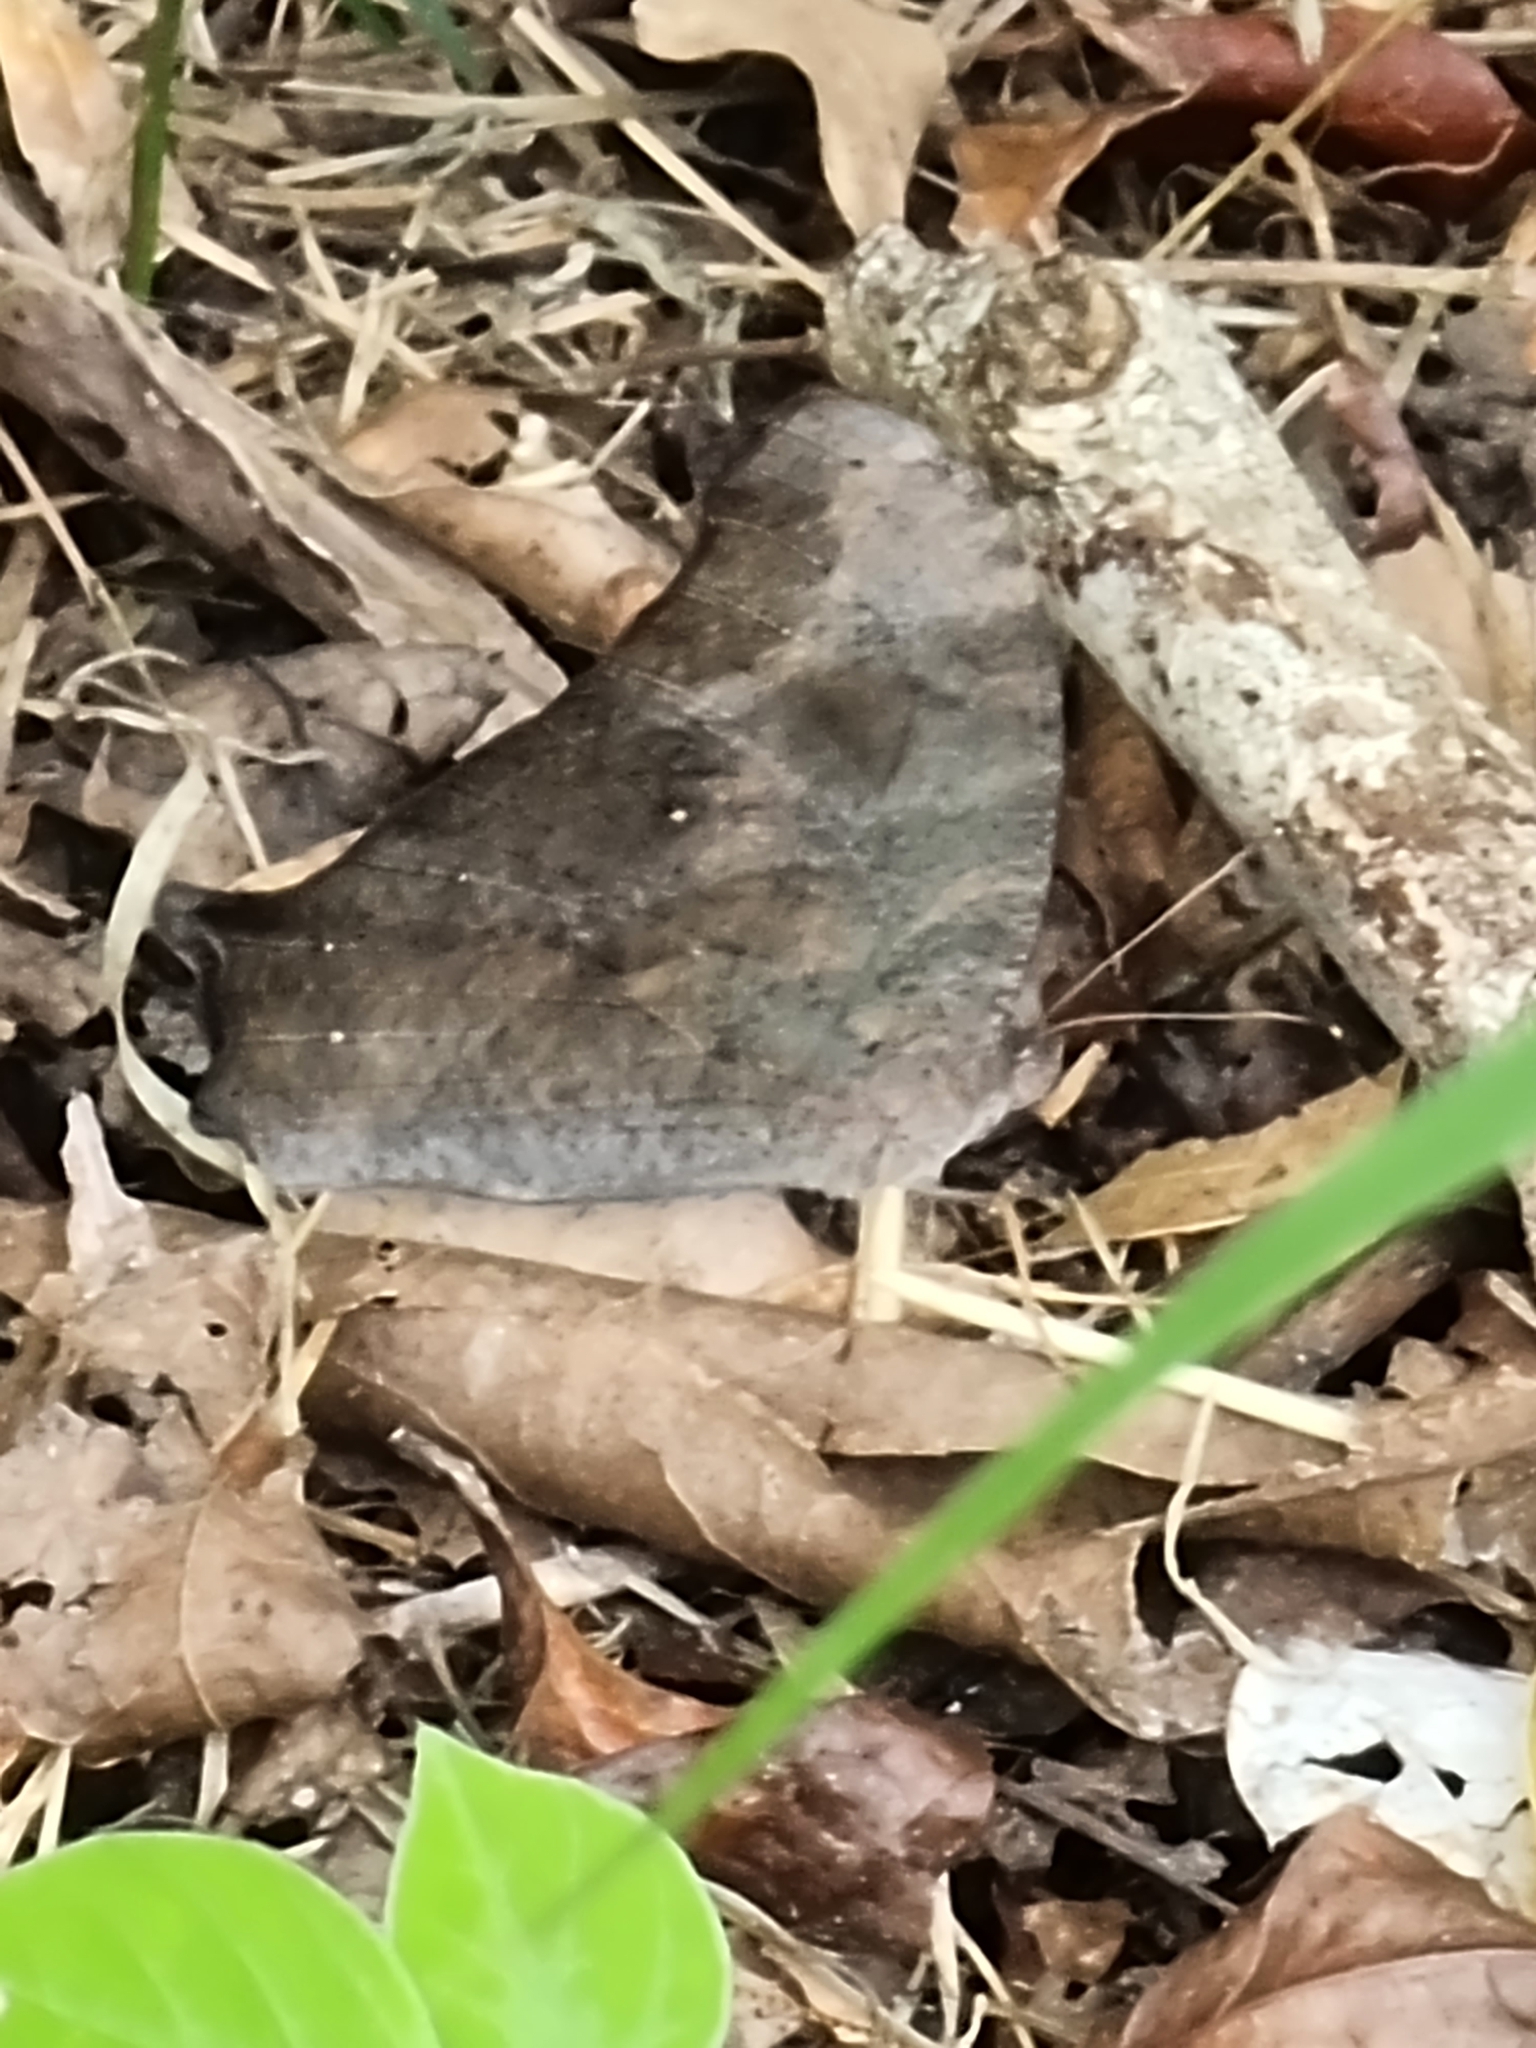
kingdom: Animalia
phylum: Arthropoda
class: Insecta
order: Lepidoptera
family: Nymphalidae
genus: Melanitis
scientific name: Melanitis leda
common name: Twilight brown
